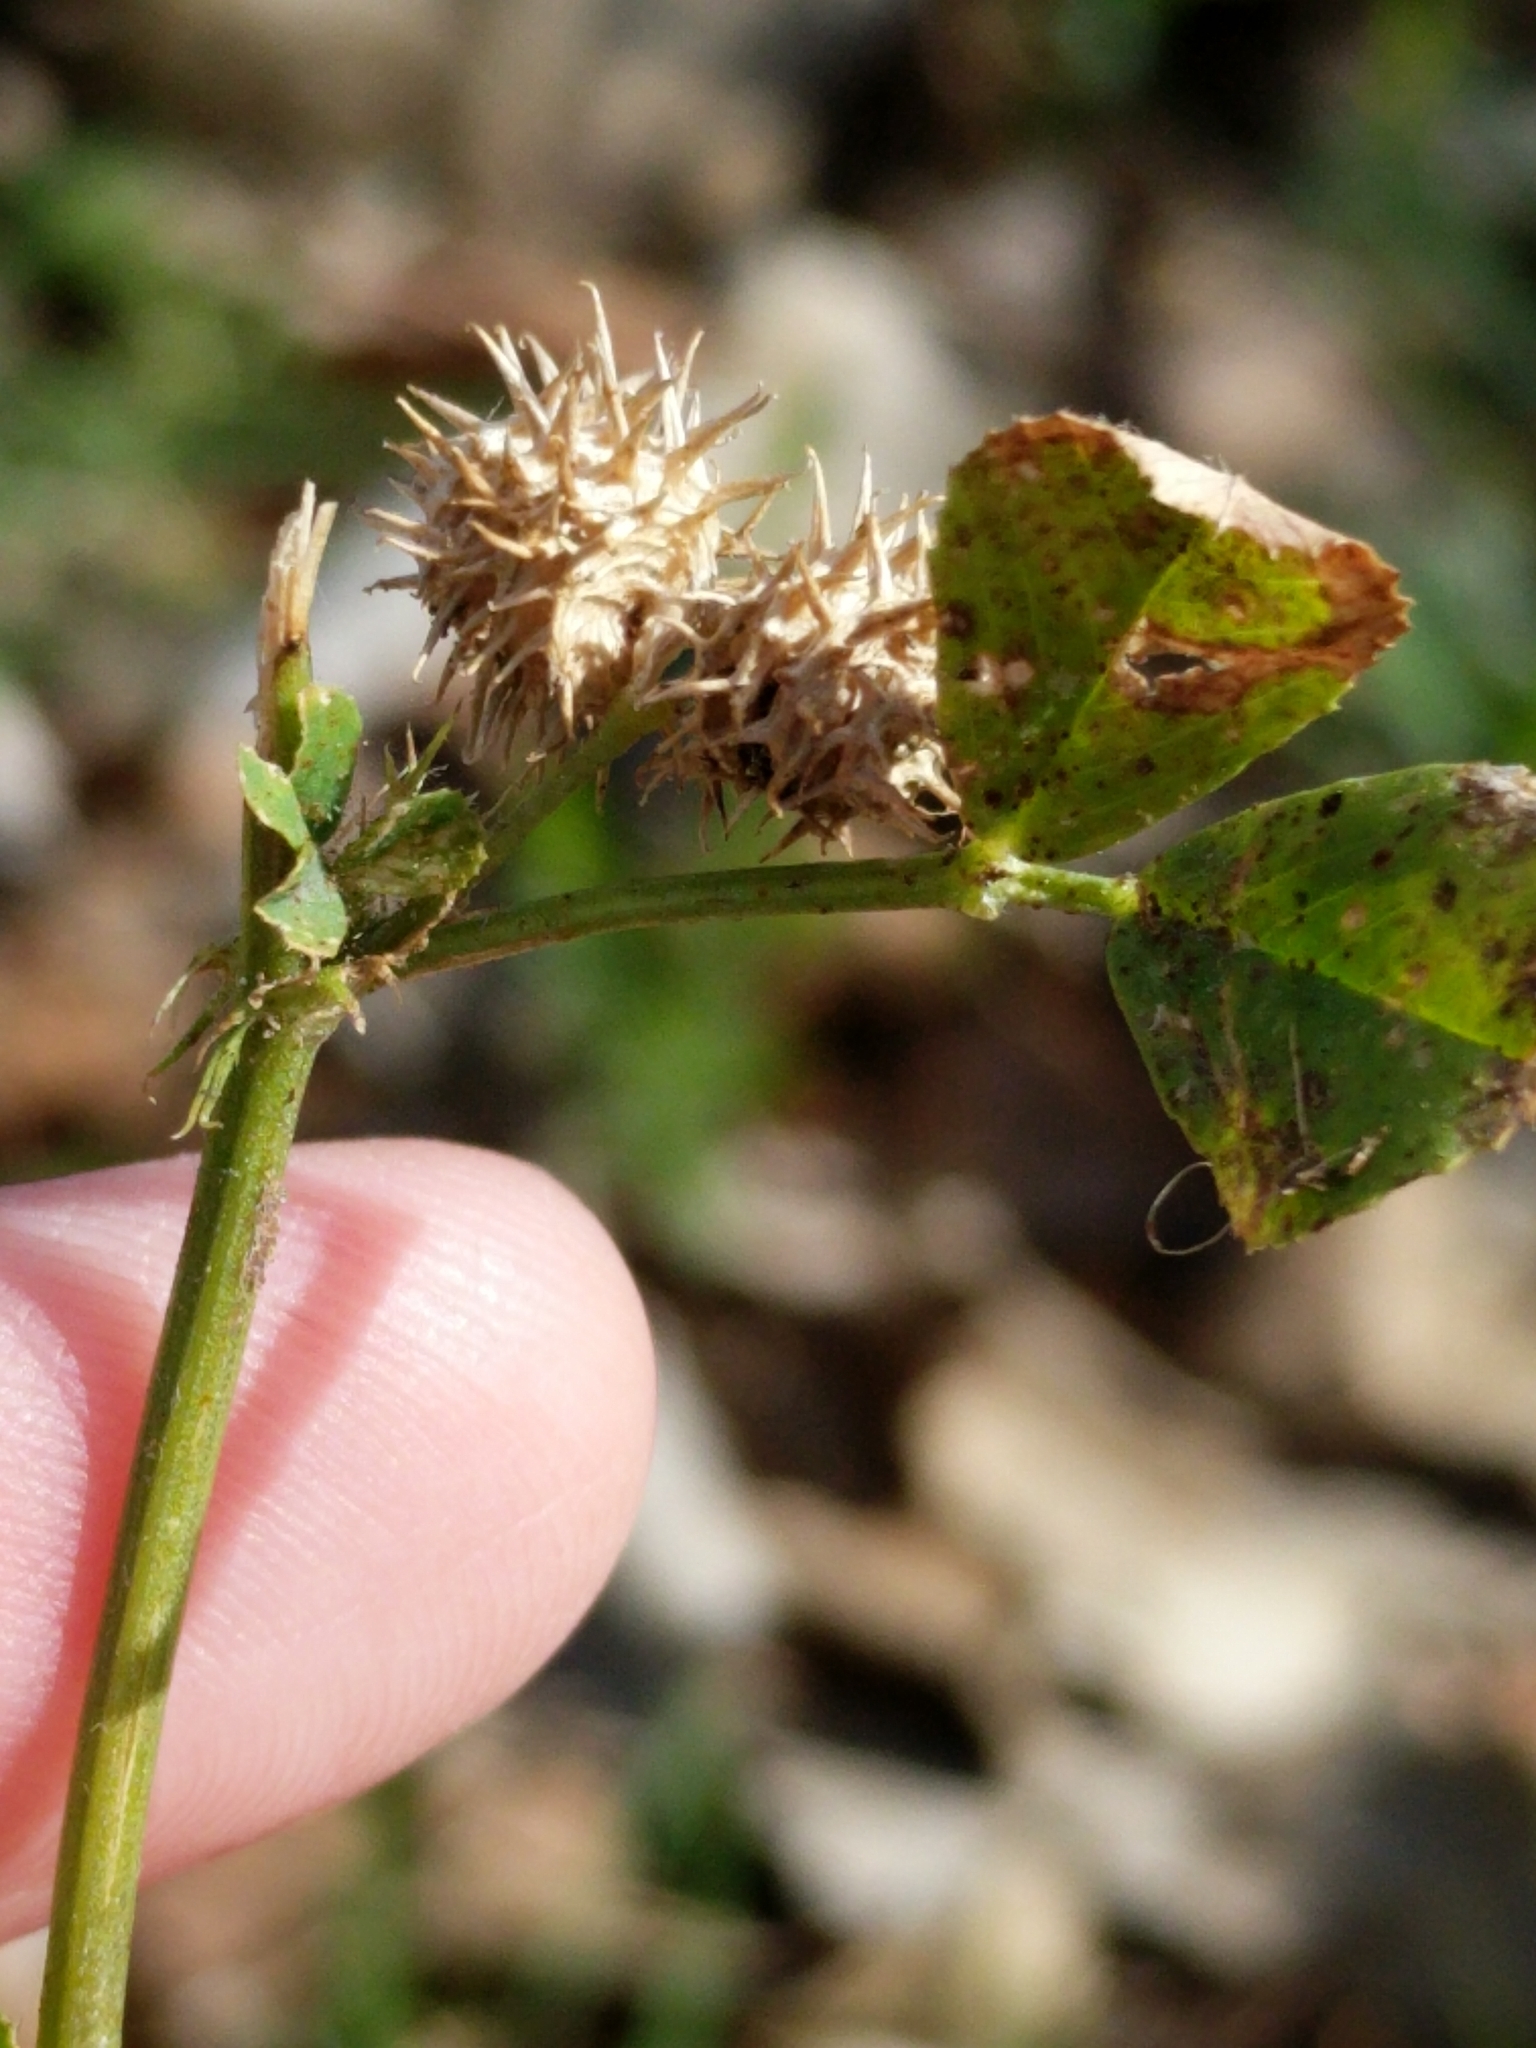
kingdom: Plantae
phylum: Tracheophyta
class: Magnoliopsida
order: Fabales
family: Fabaceae
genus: Medicago
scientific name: Medicago polymorpha
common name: Burclover
